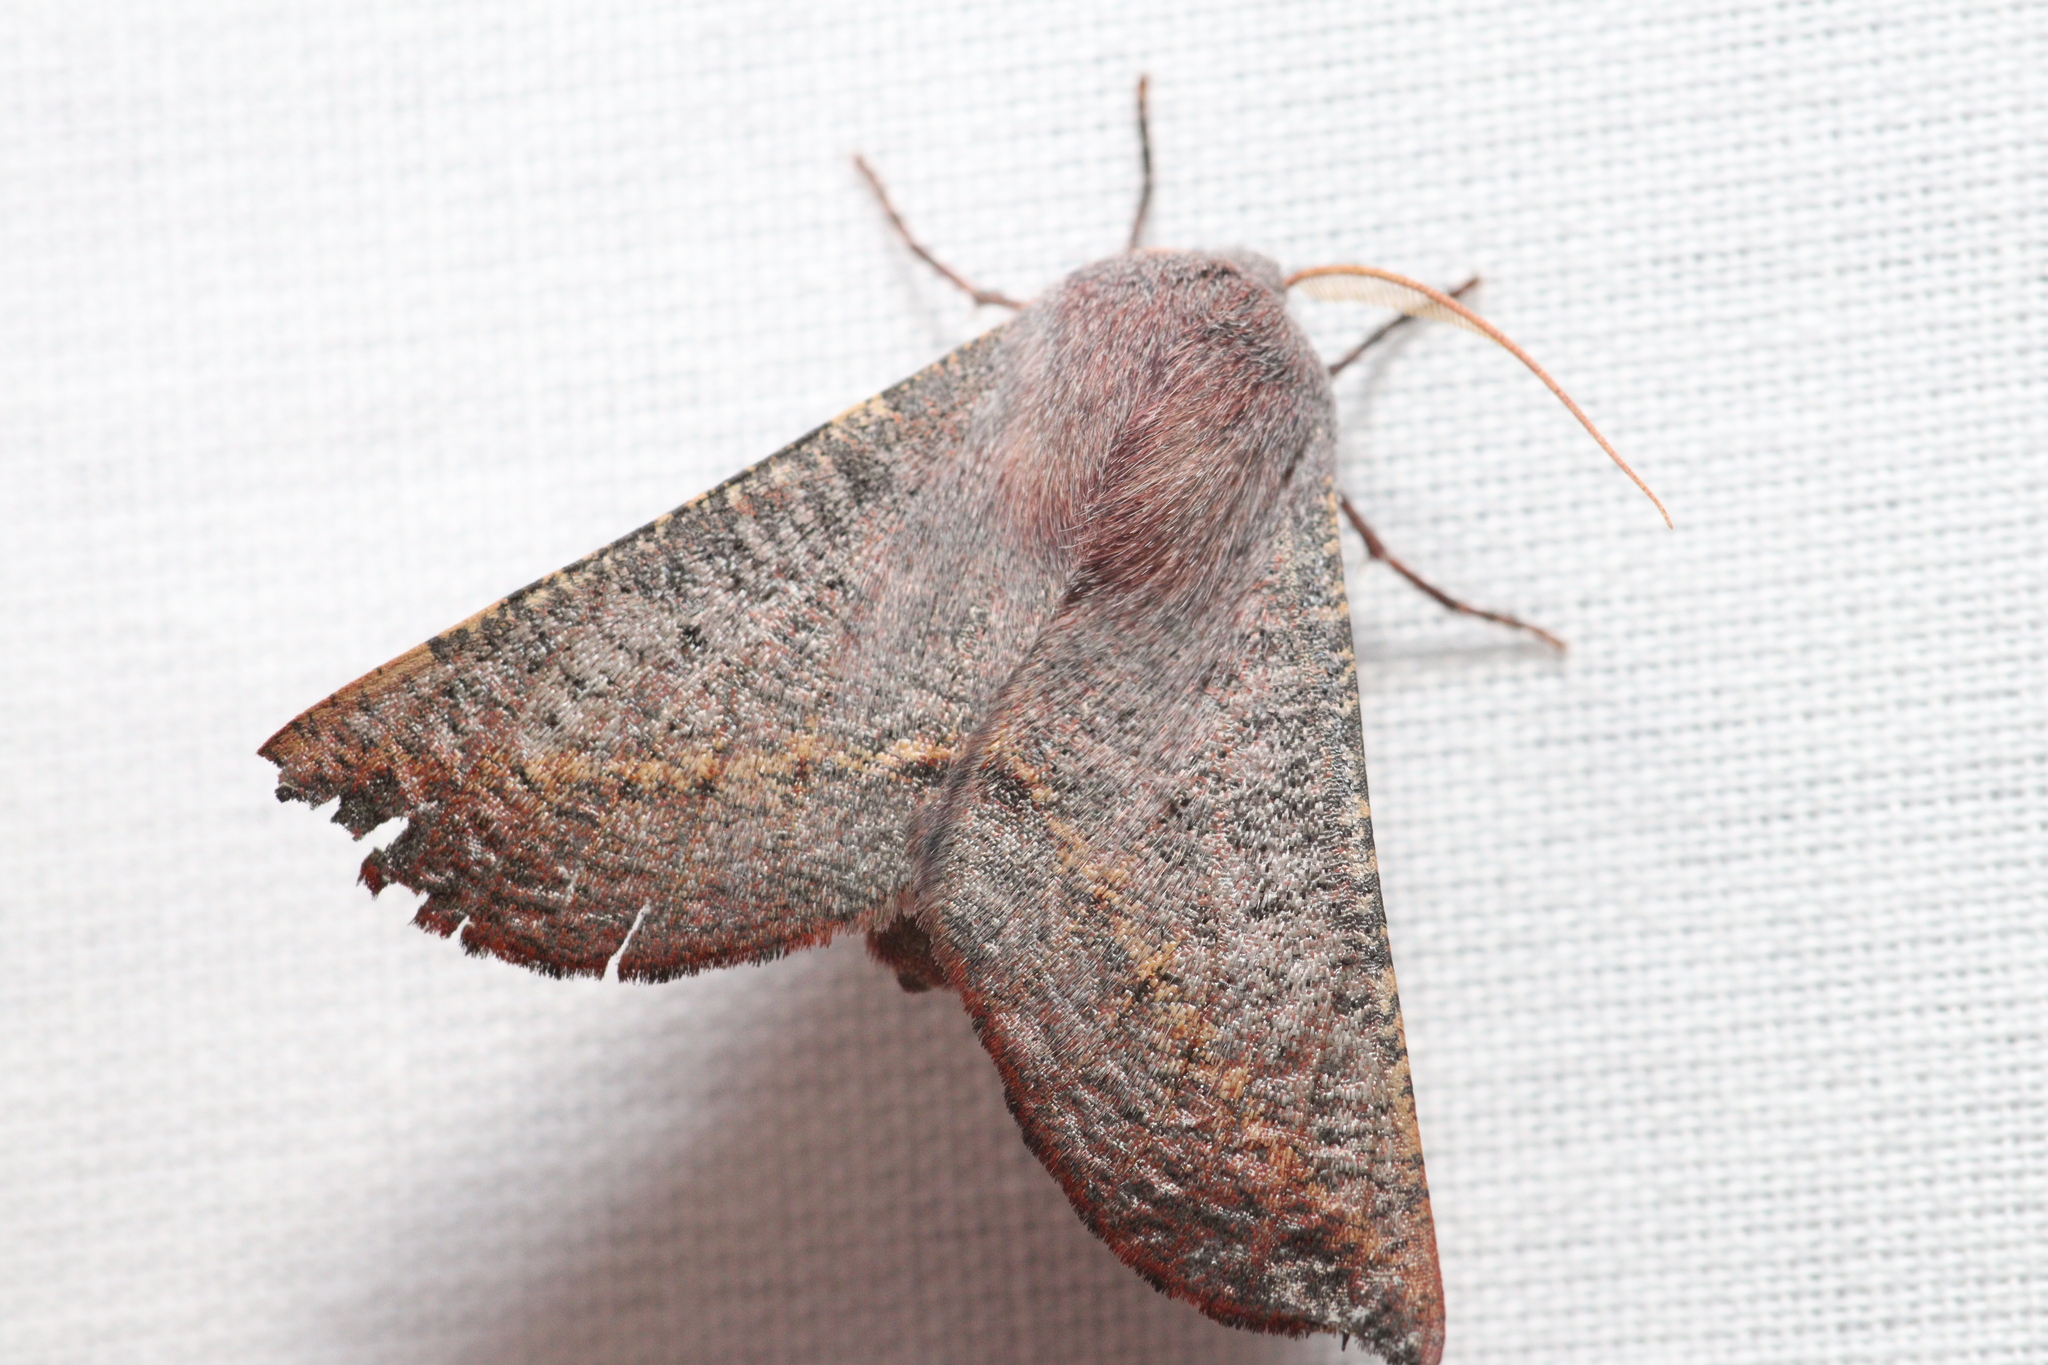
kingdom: Animalia
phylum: Arthropoda
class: Insecta
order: Lepidoptera
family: Geometridae
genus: Oenochroma
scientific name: Oenochroma cycnoptera
